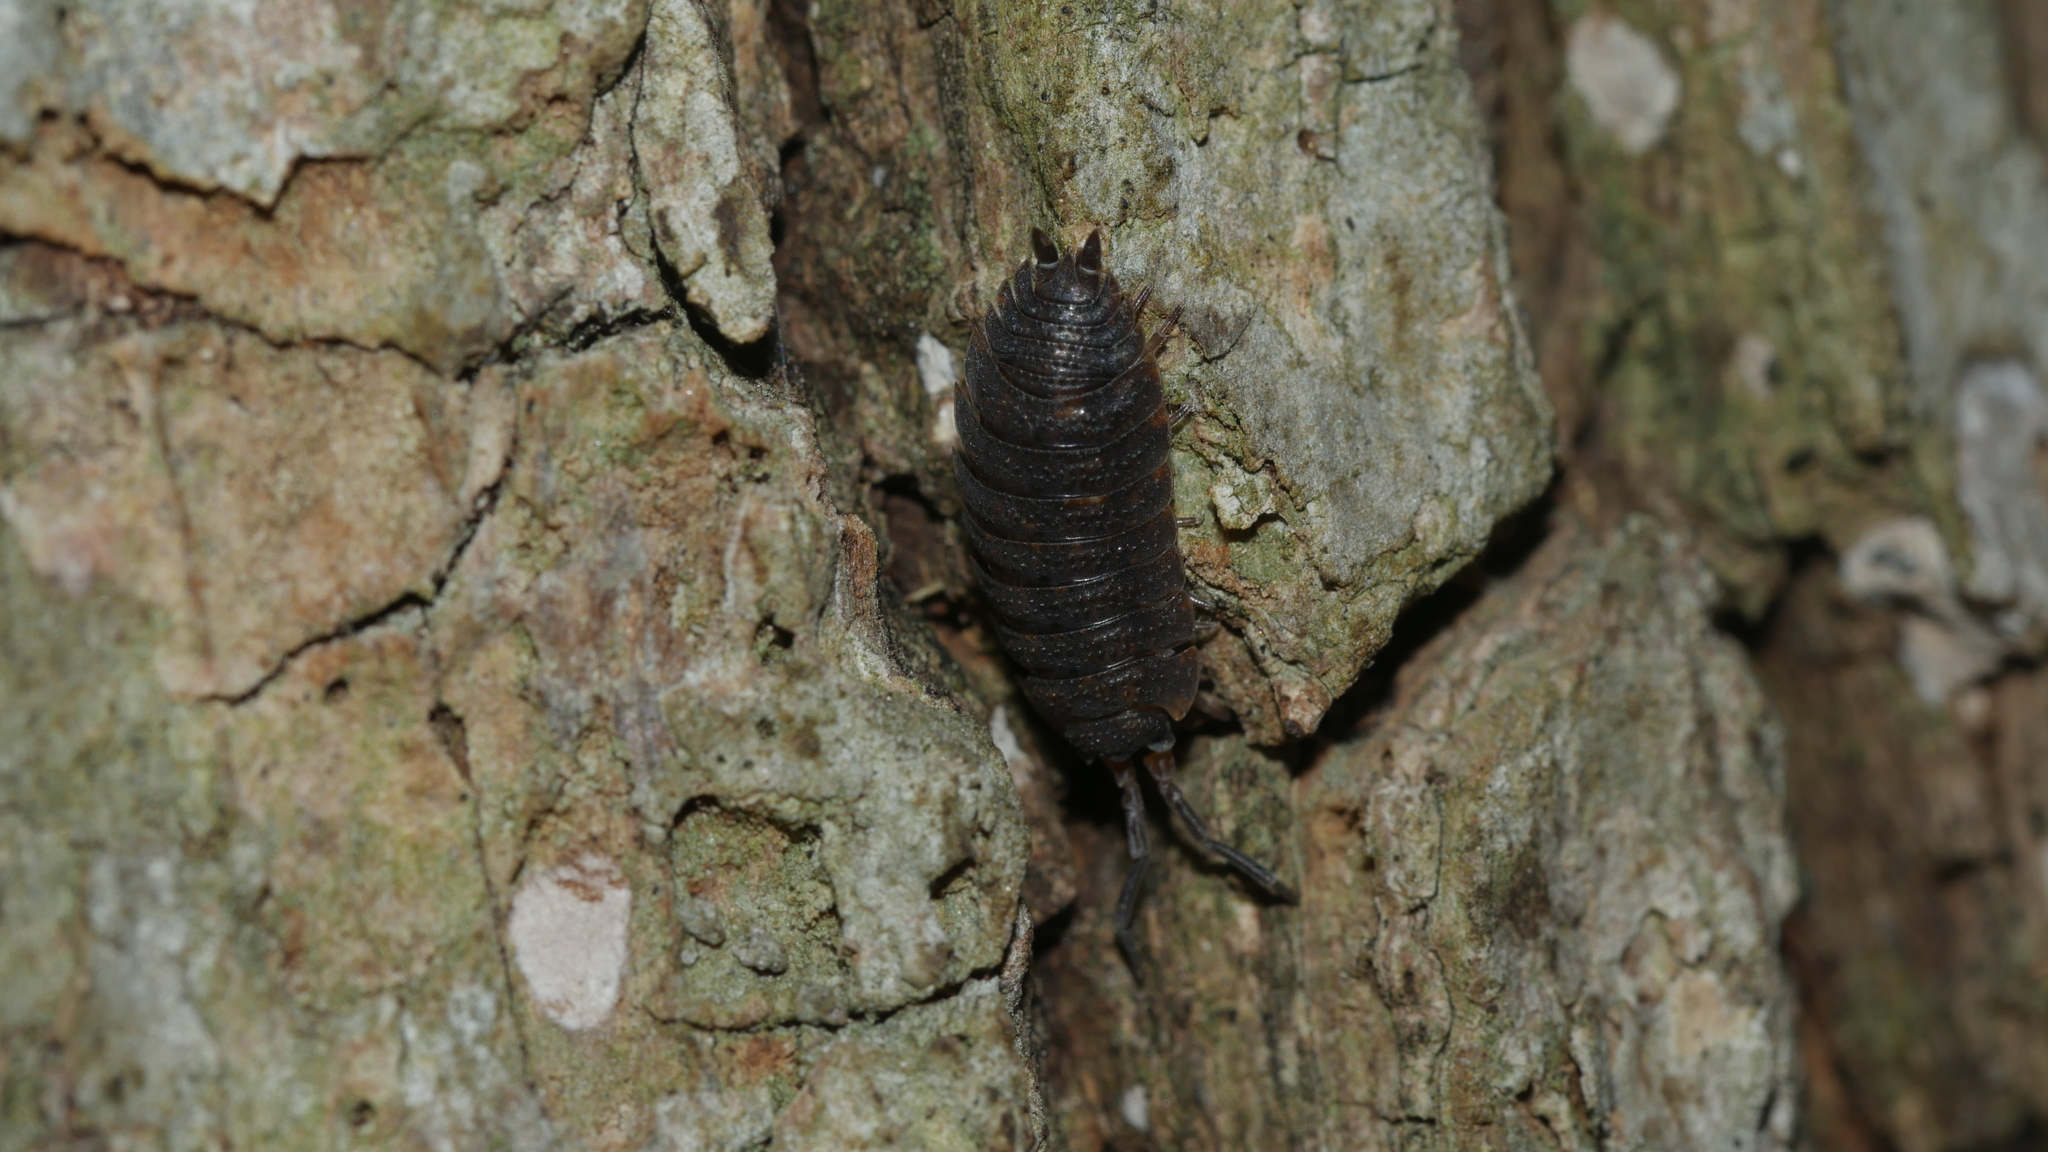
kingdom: Animalia
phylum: Arthropoda
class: Malacostraca
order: Isopoda
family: Porcellionidae
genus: Porcellio
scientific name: Porcellio scaber
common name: Common rough woodlouse
